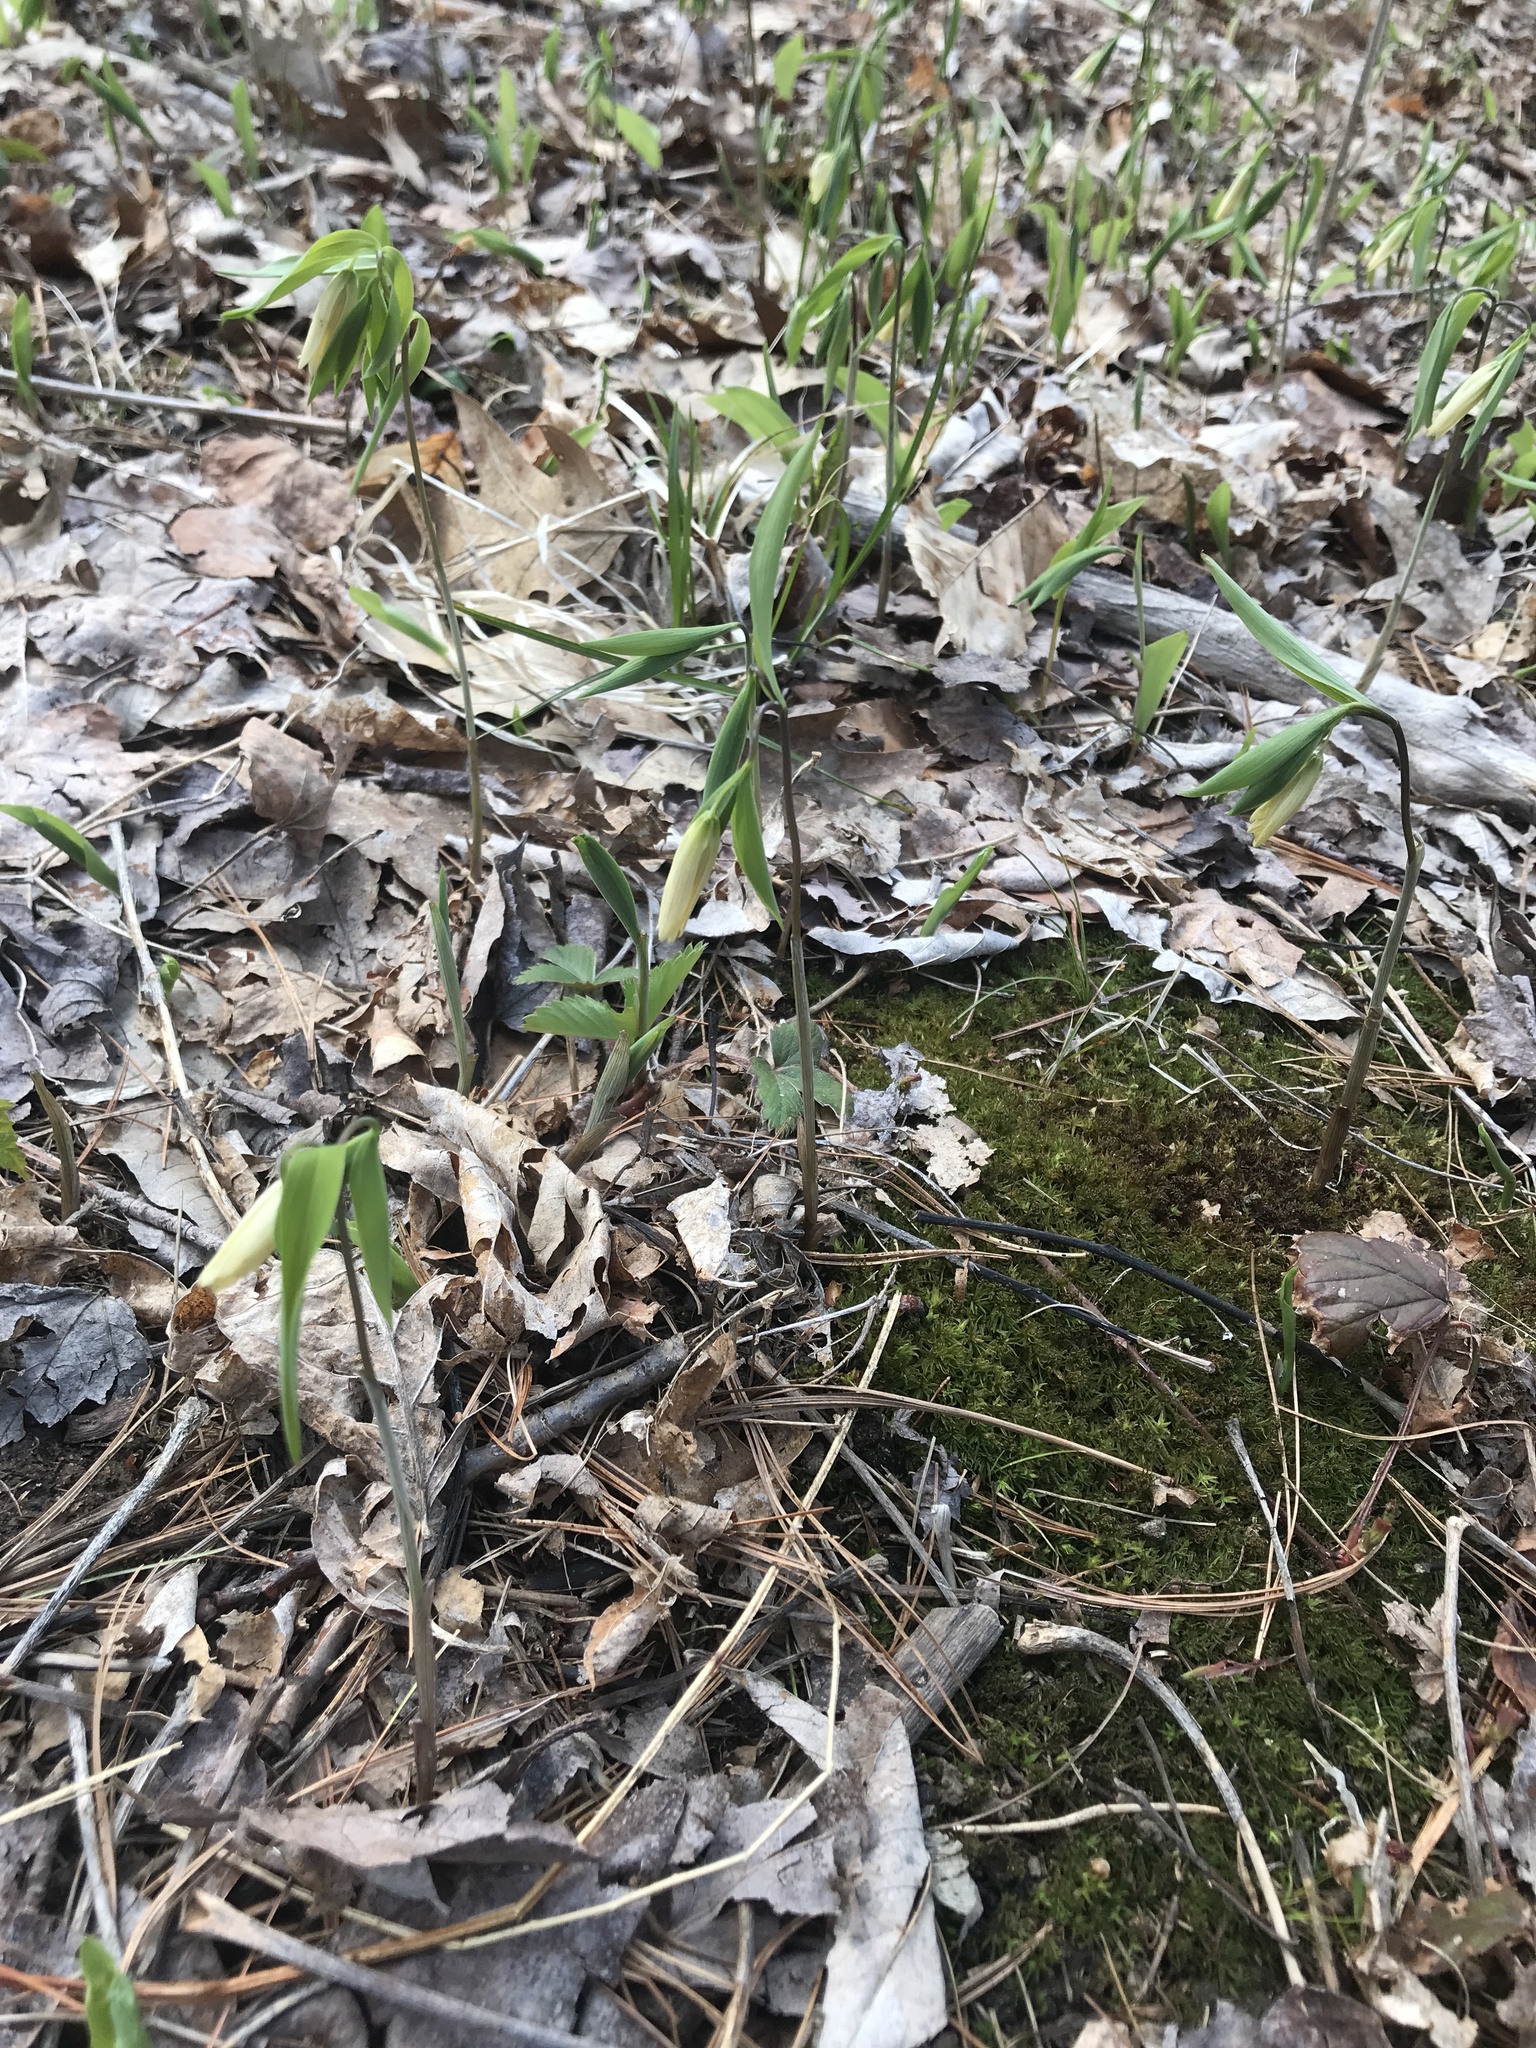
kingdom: Plantae
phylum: Tracheophyta
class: Liliopsida
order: Liliales
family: Colchicaceae
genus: Uvularia
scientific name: Uvularia sessilifolia
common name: Straw-lily
